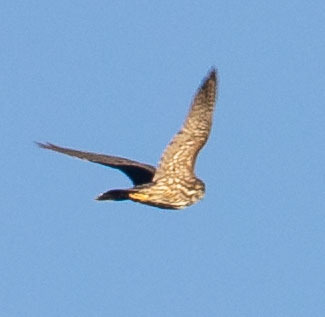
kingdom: Animalia
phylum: Chordata
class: Aves
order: Falconiformes
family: Falconidae
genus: Falco
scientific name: Falco columbarius
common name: Merlin
